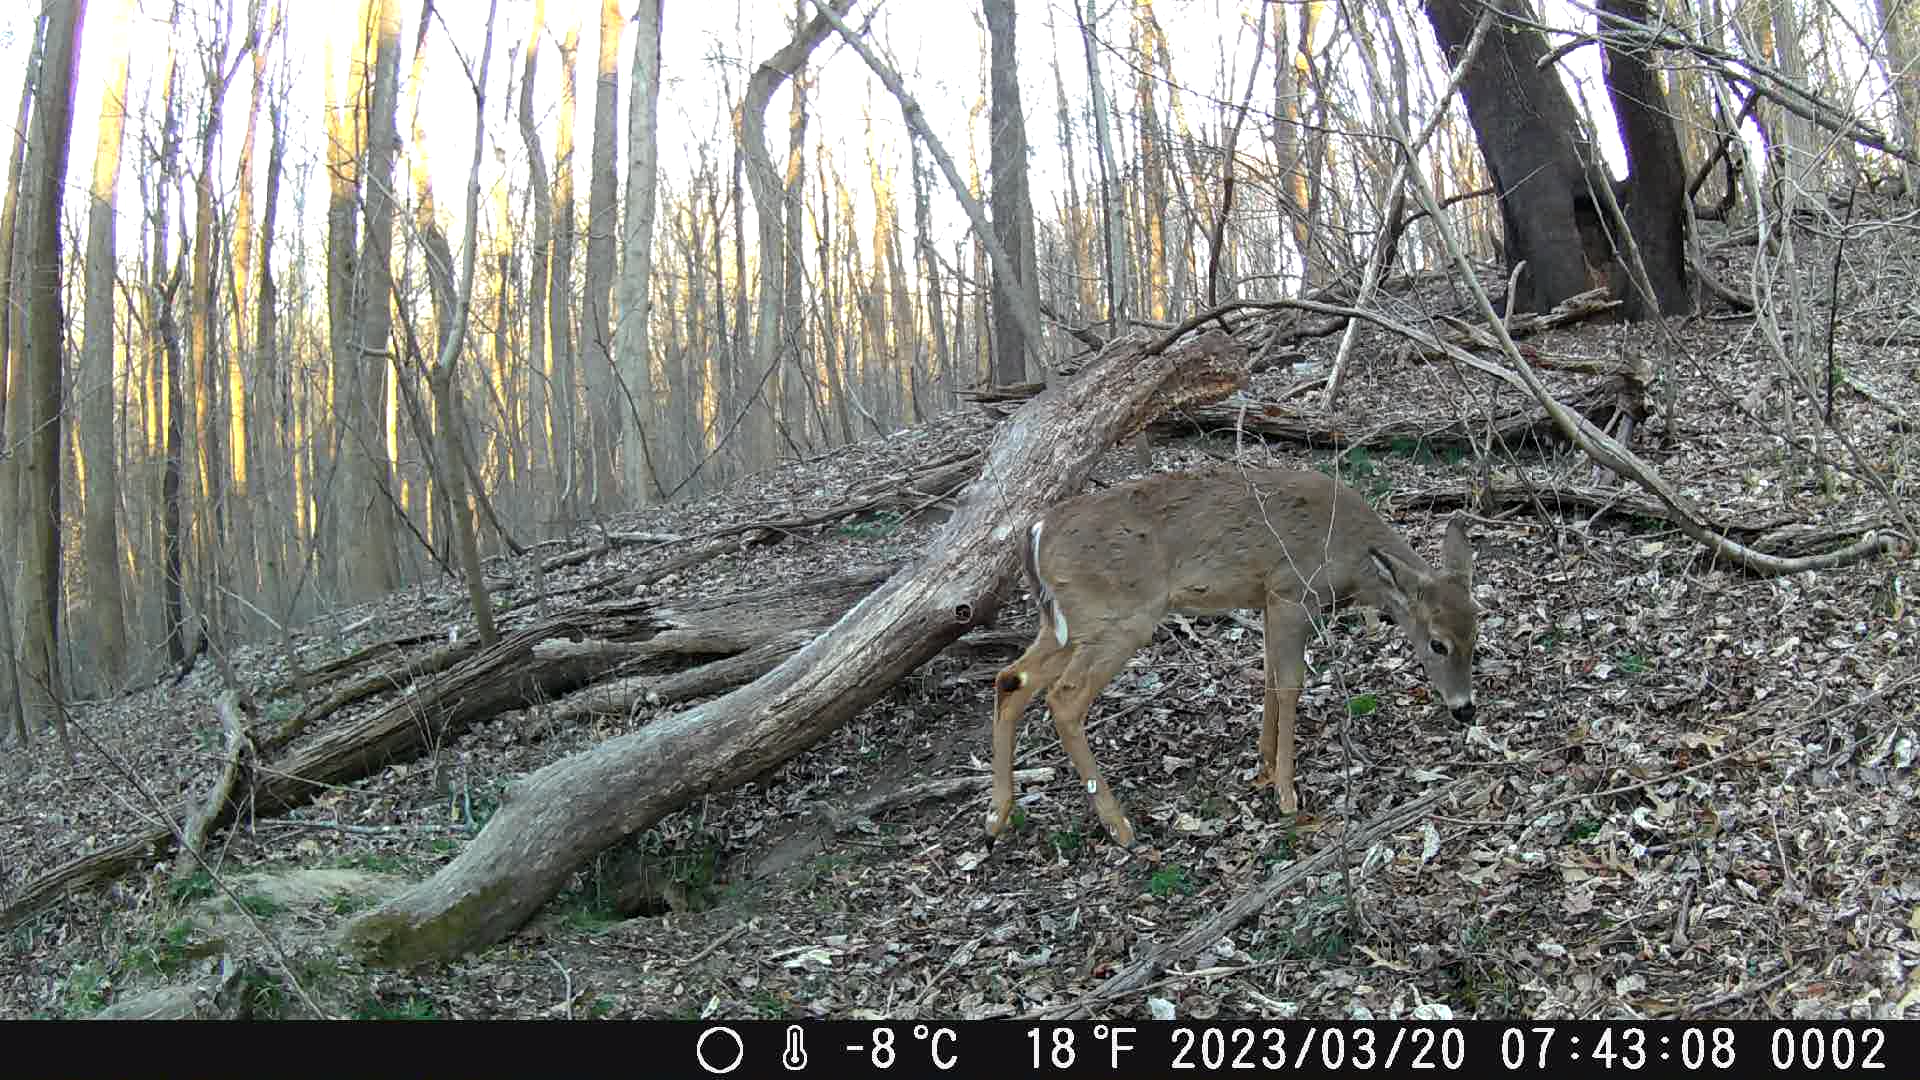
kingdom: Animalia
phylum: Chordata
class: Mammalia
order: Artiodactyla
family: Cervidae
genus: Odocoileus
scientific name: Odocoileus virginianus
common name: White-tailed deer
